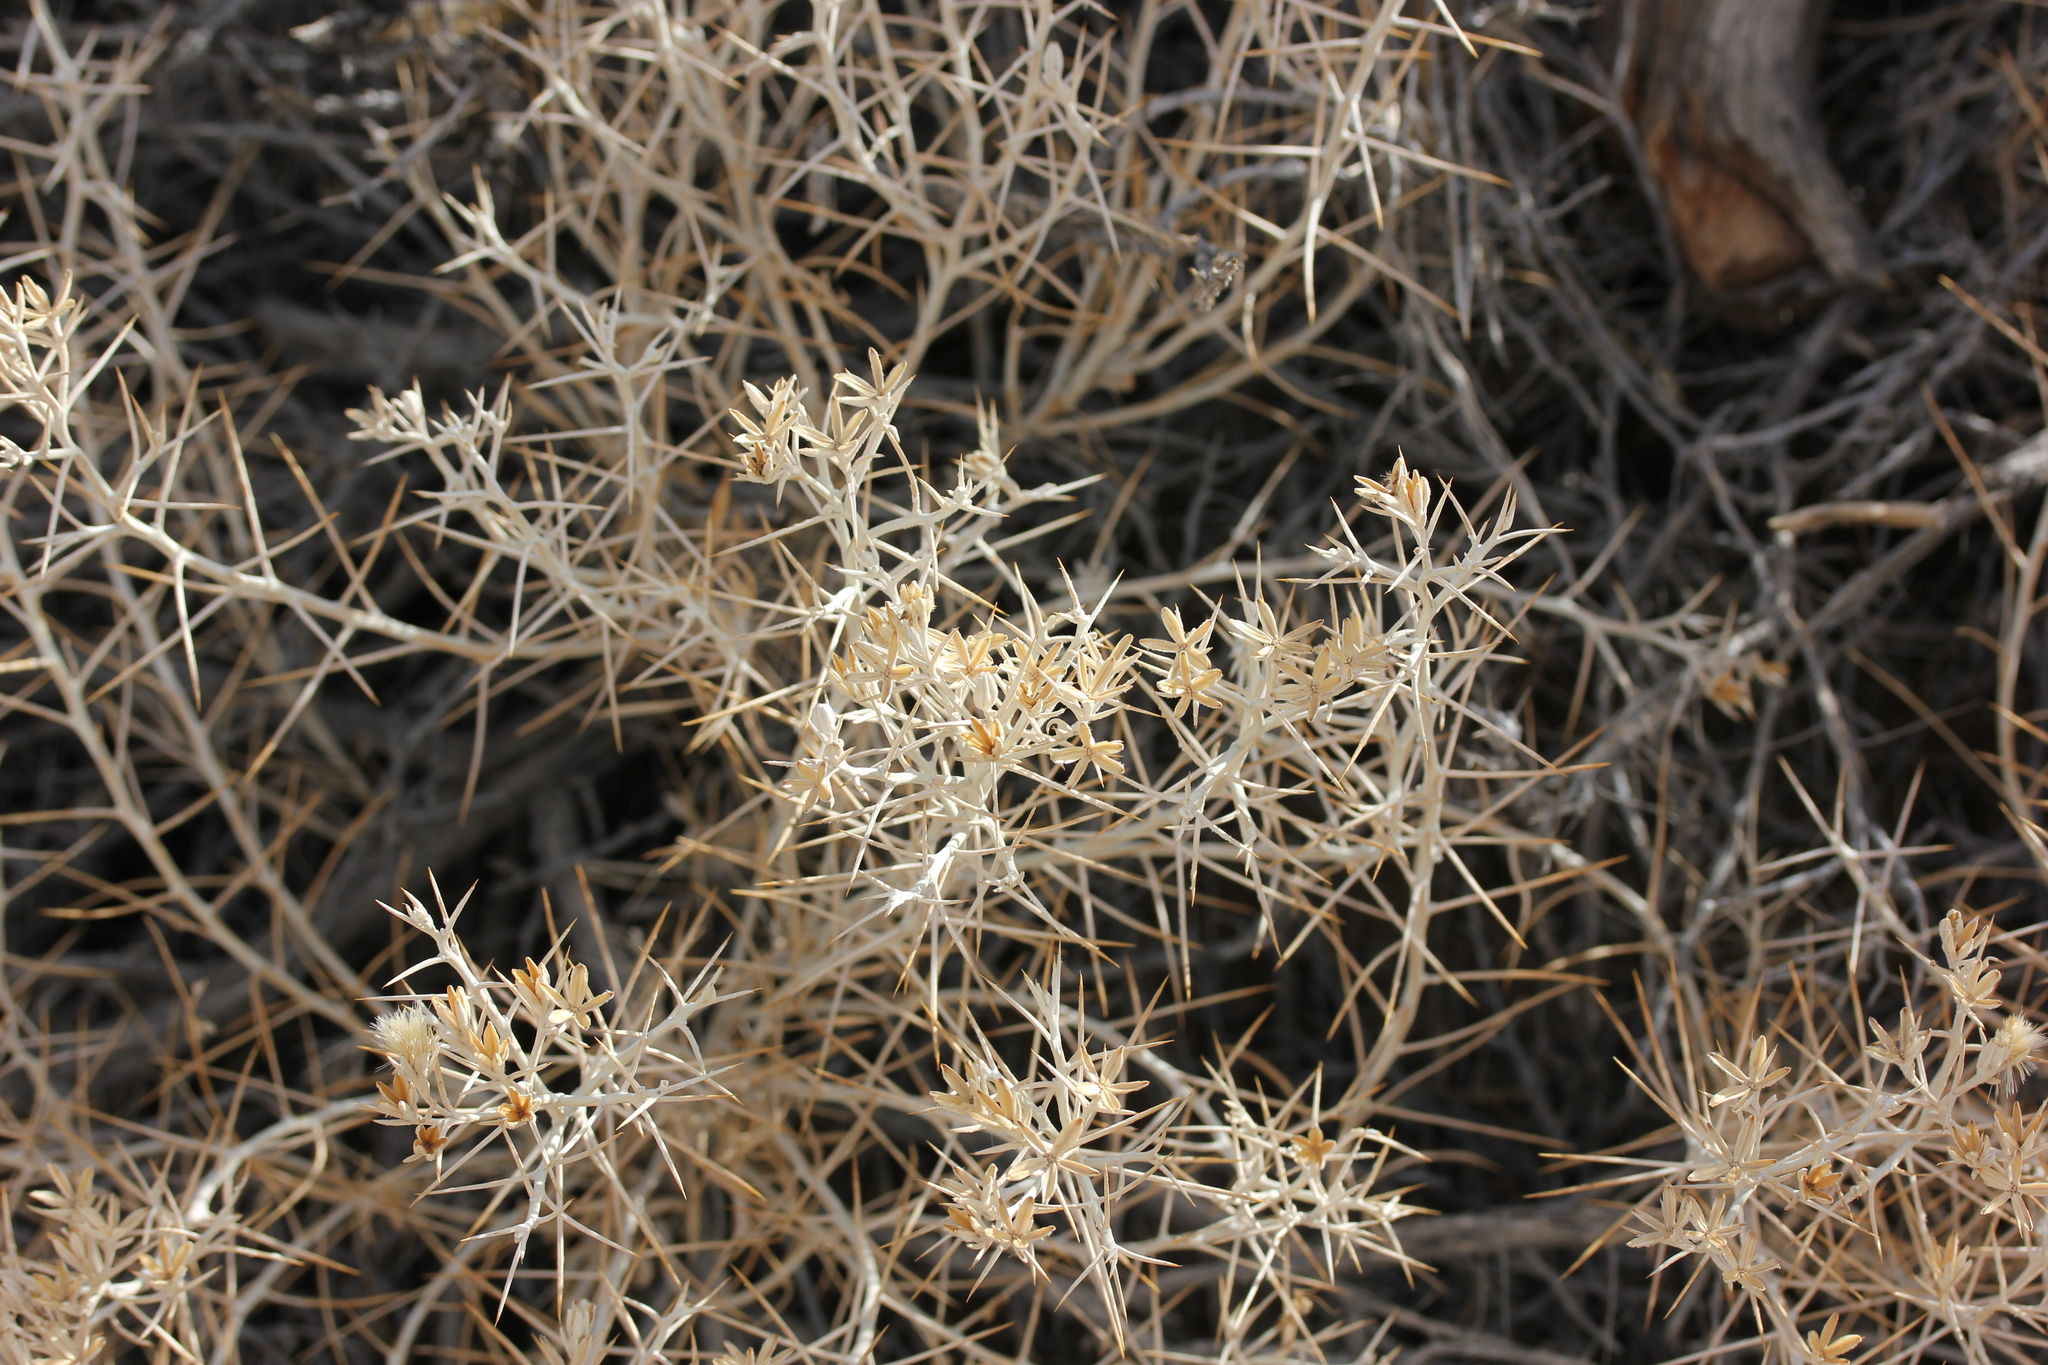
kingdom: Plantae
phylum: Tracheophyta
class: Magnoliopsida
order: Asterales
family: Asteraceae
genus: Tetradymia
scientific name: Tetradymia stenolepis
